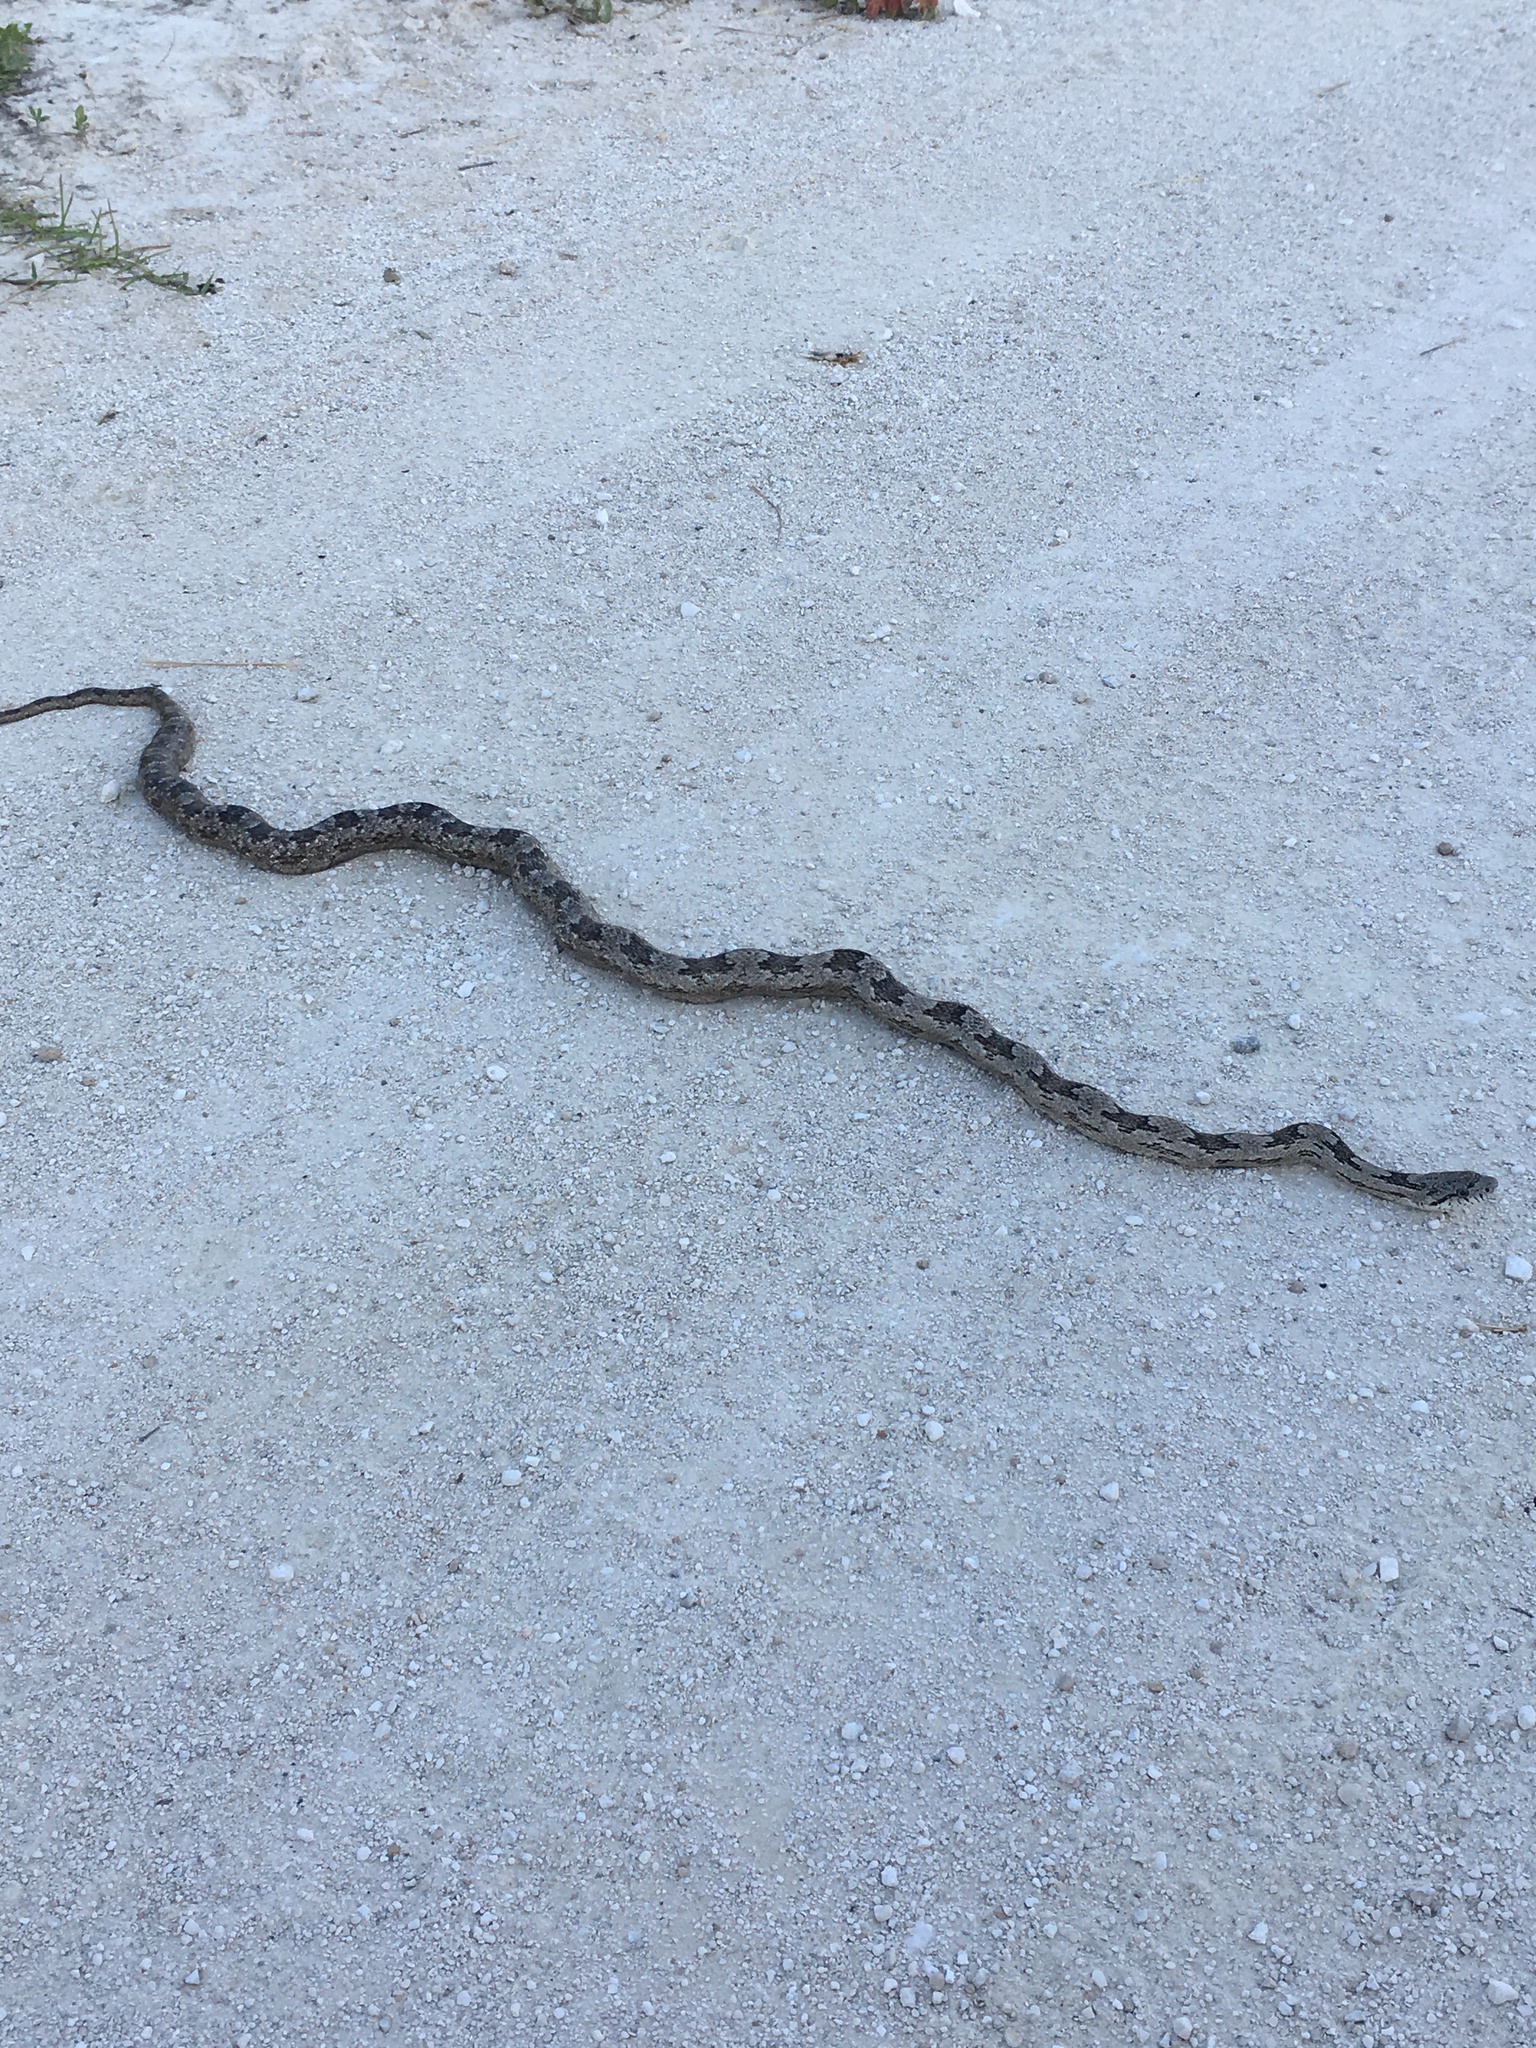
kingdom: Animalia
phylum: Chordata
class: Squamata
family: Colubridae
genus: Pantherophis
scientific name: Pantherophis alleghaniensis
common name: Eastern rat snake
